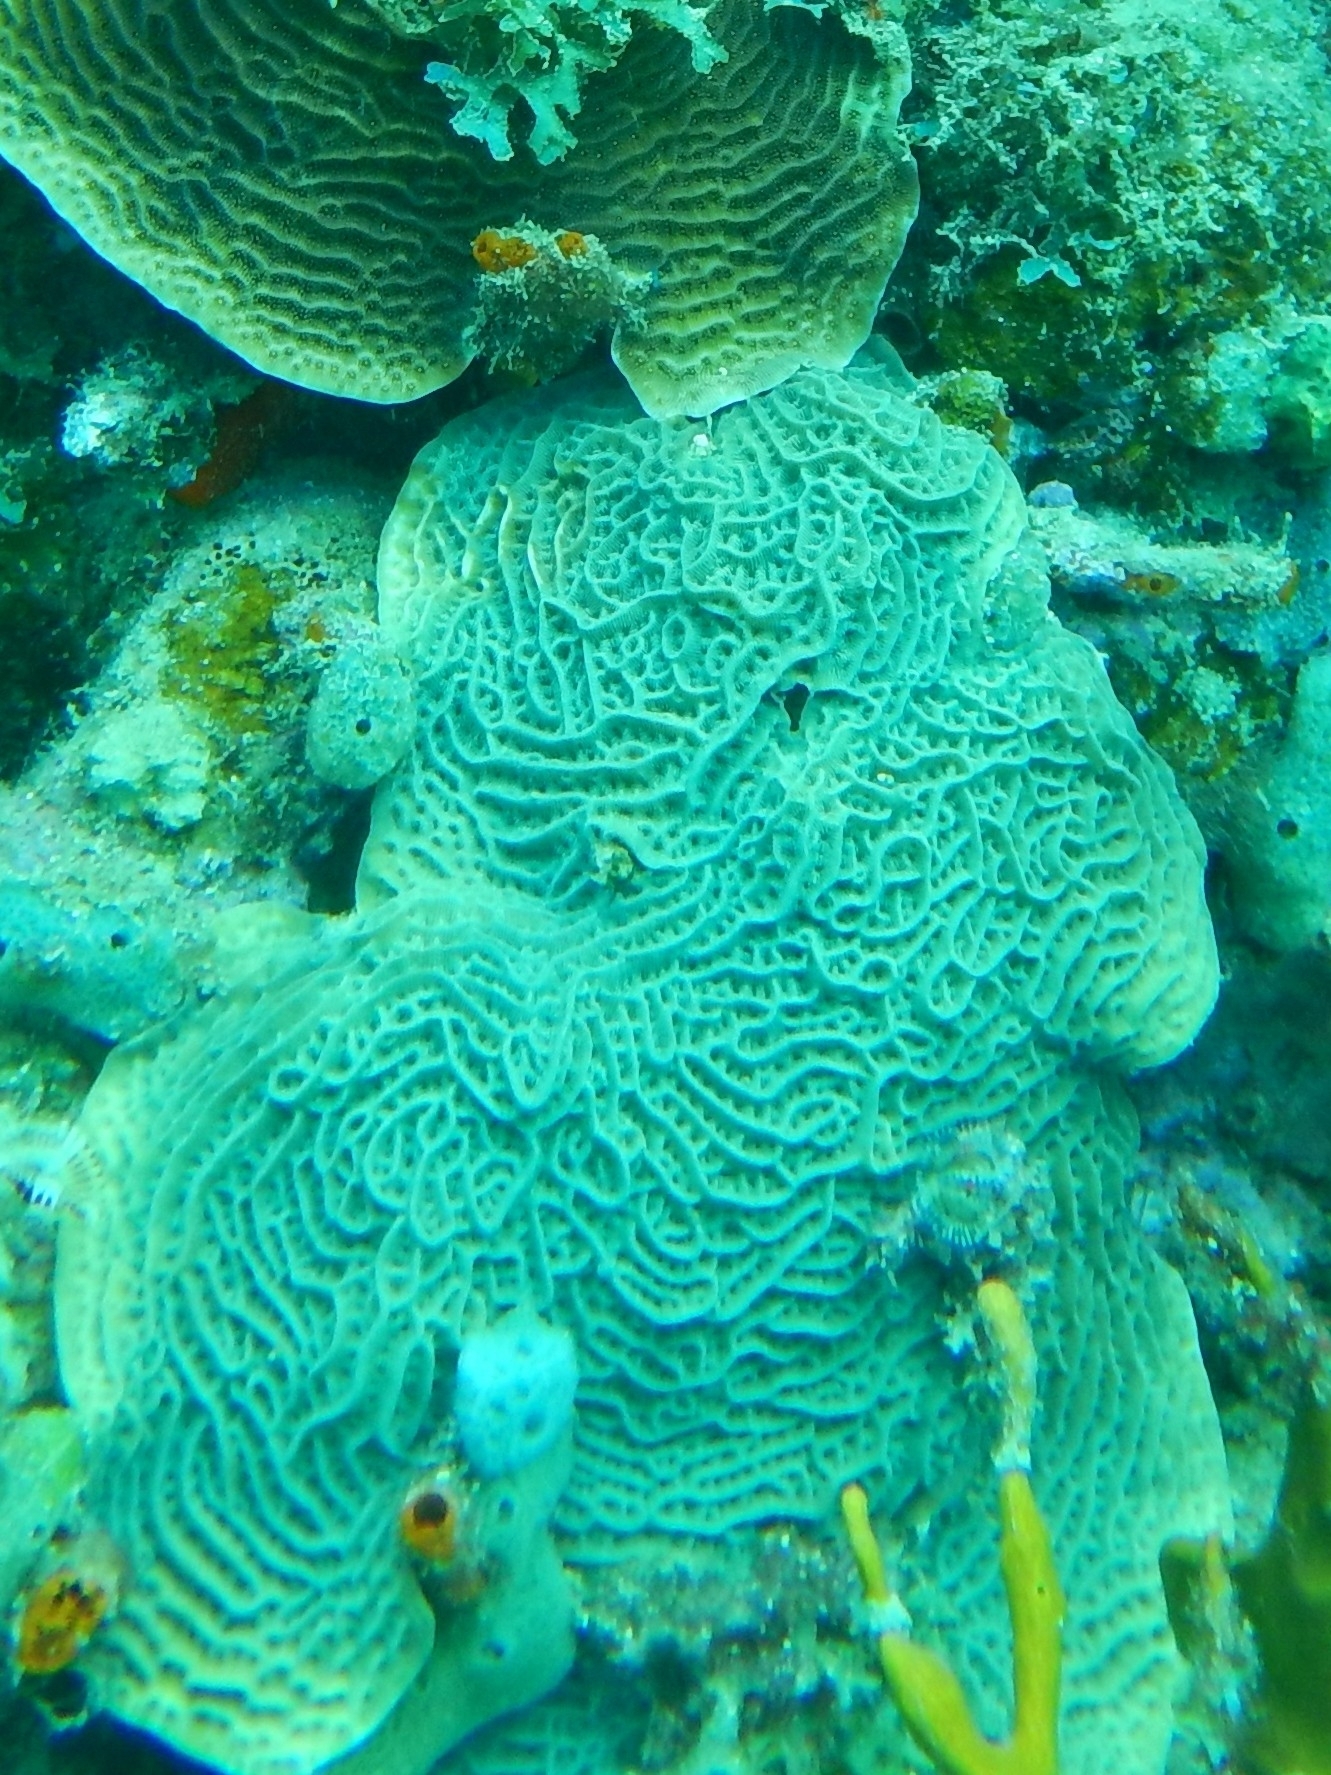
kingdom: Animalia
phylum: Cnidaria
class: Anthozoa
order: Scleractinia
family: Agariciidae
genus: Agaricia
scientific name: Agaricia agaricites
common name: Lettuce coral
